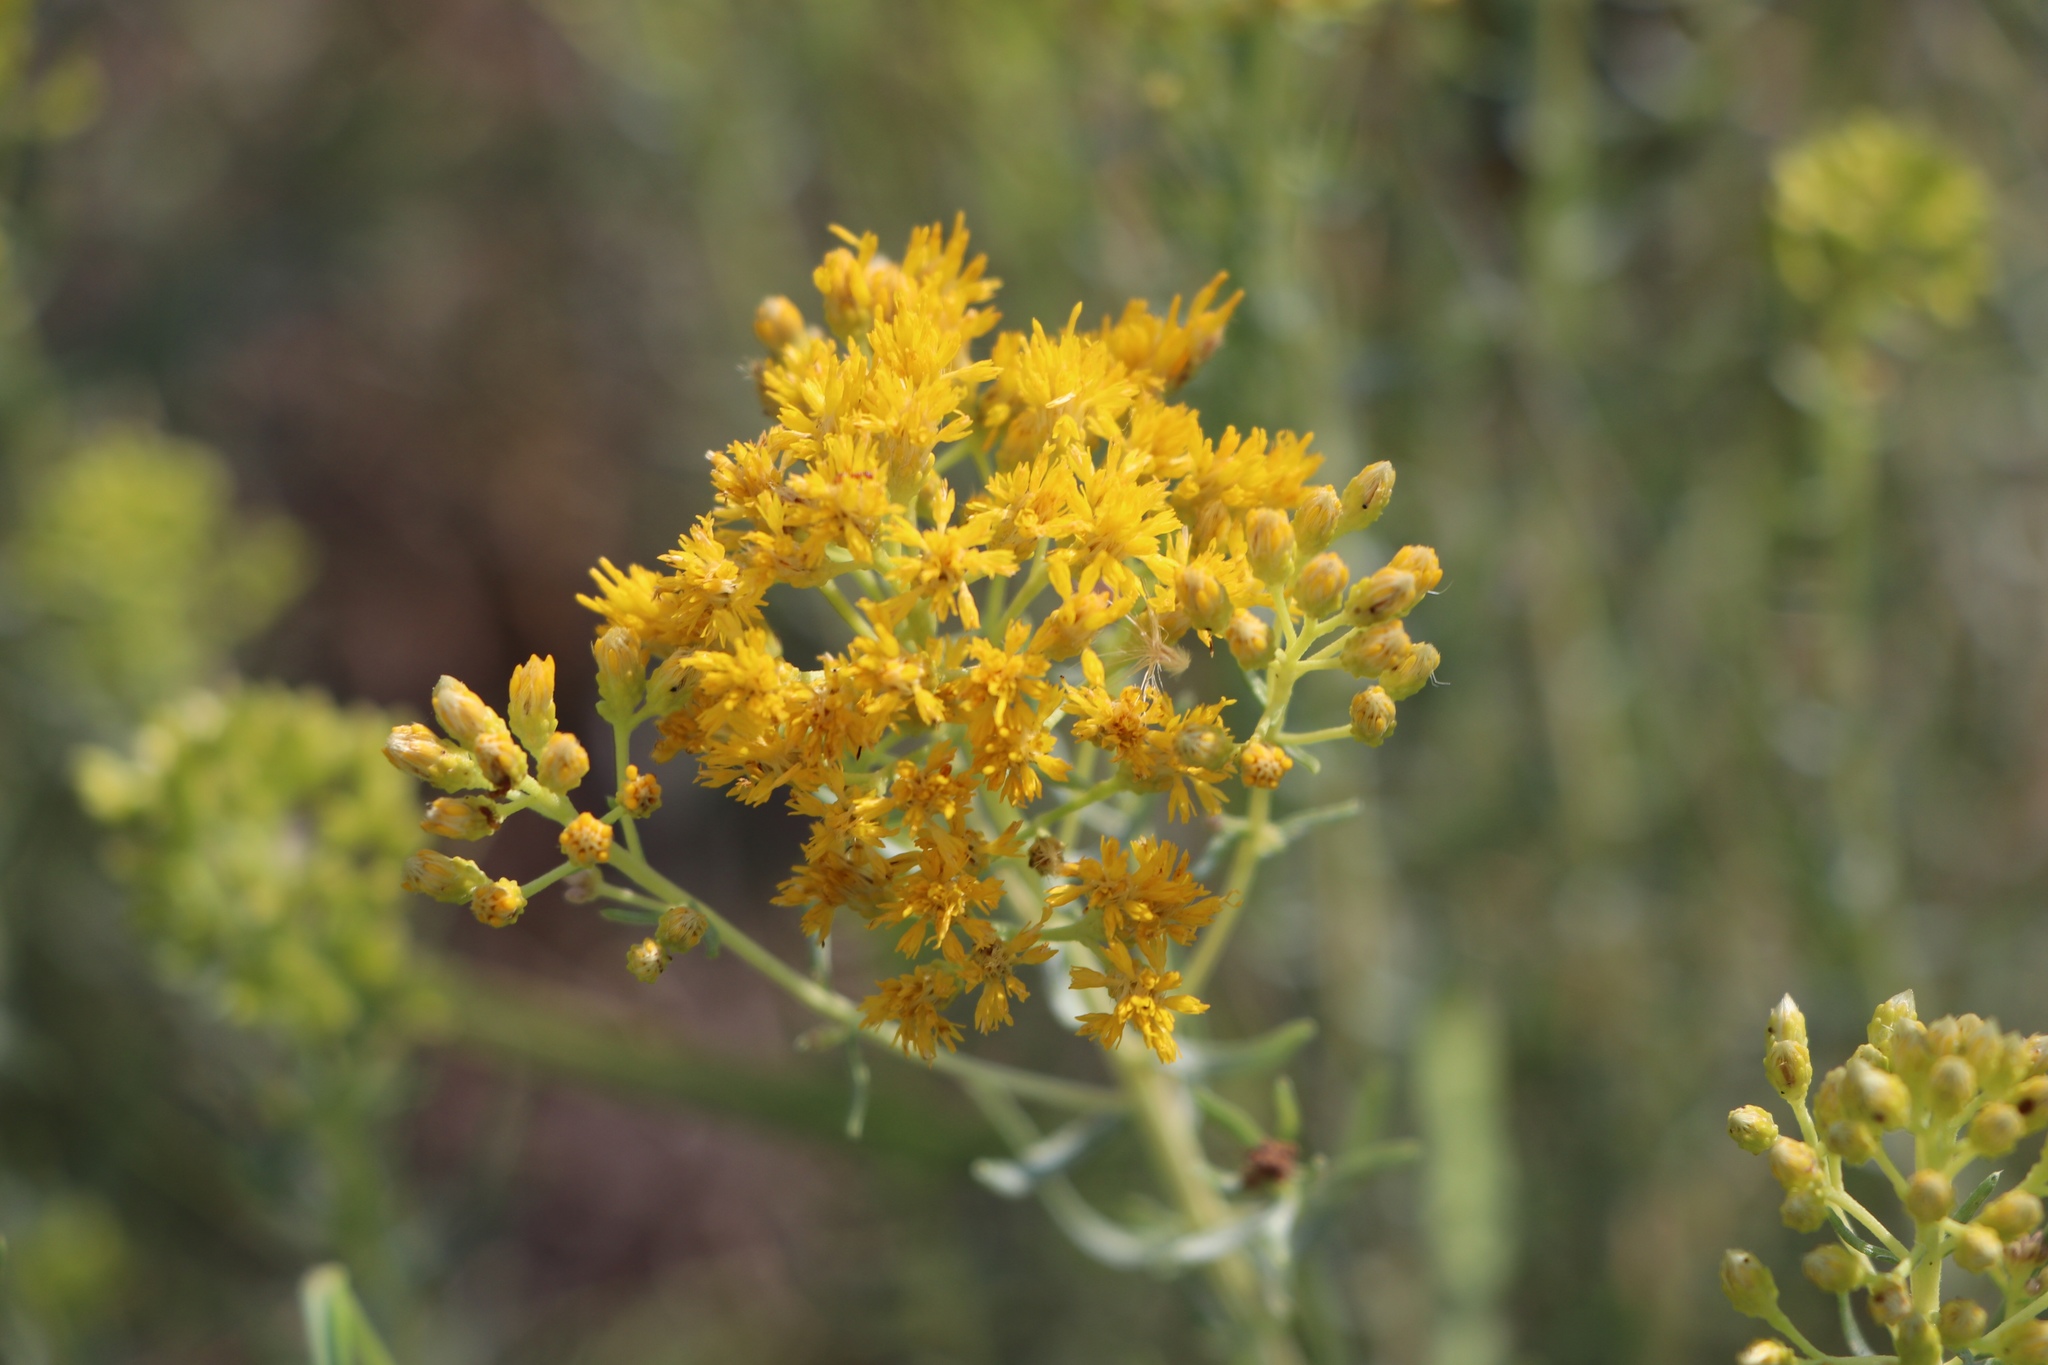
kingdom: Plantae
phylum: Tracheophyta
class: Magnoliopsida
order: Asterales
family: Asteraceae
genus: Isocoma
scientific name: Isocoma pluriflora
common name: Southern jimmyweed
